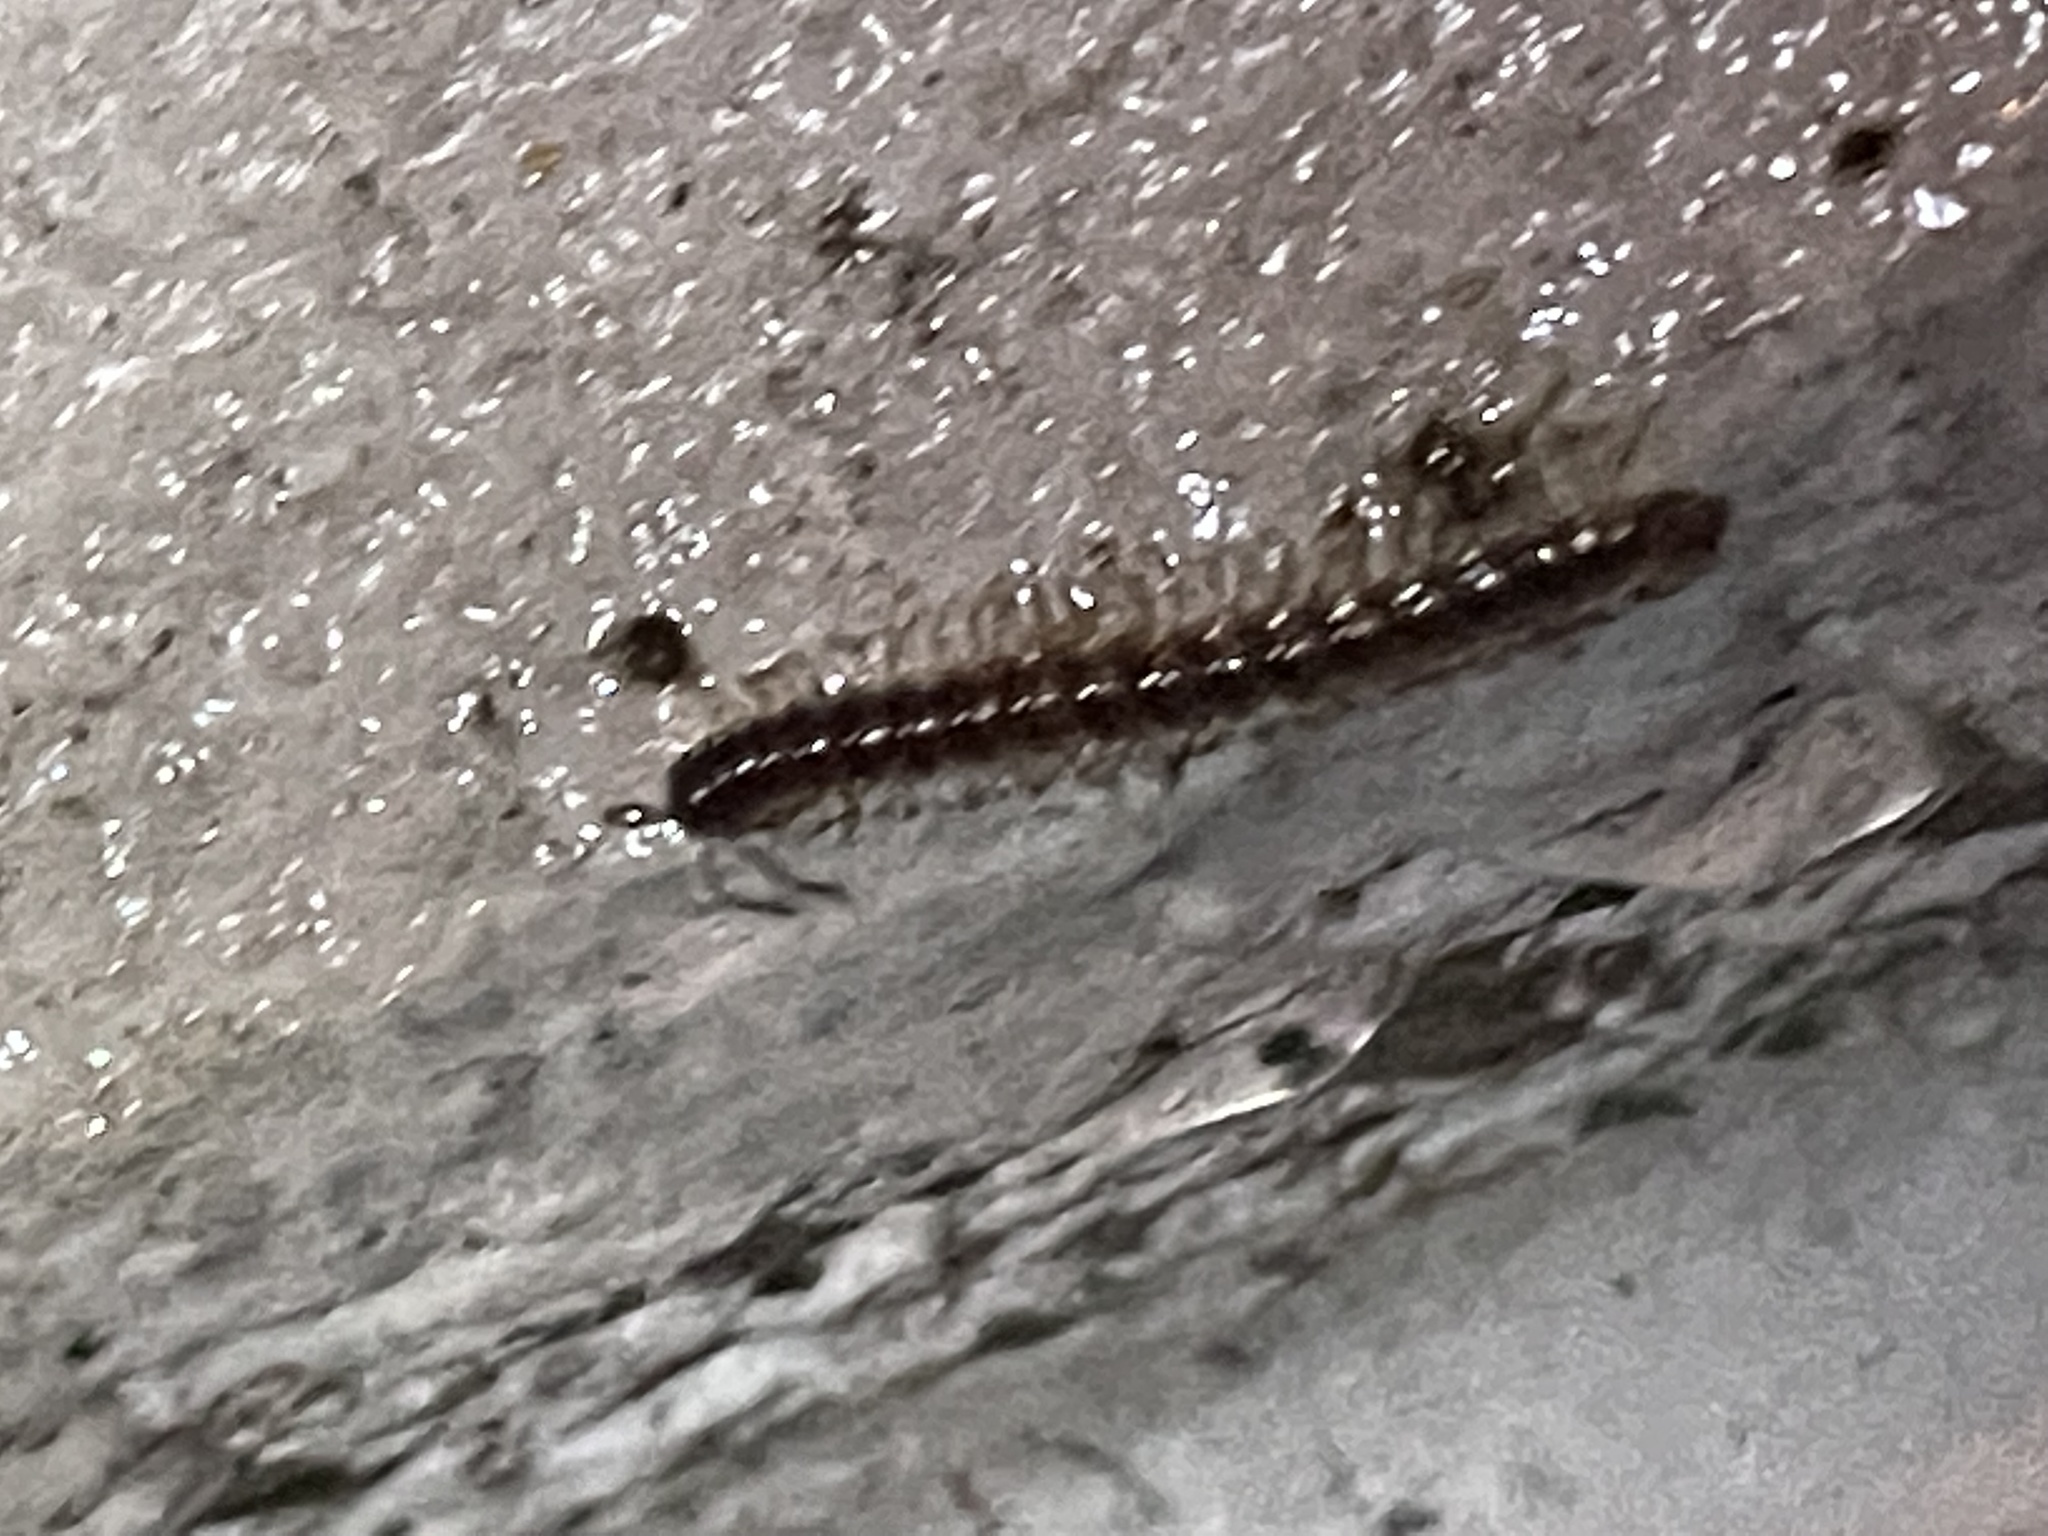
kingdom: Animalia
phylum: Arthropoda
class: Diplopoda
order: Polydesmida
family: Paradoxosomatidae
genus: Oxidus
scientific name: Oxidus gracilis
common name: Greenhouse millipede
